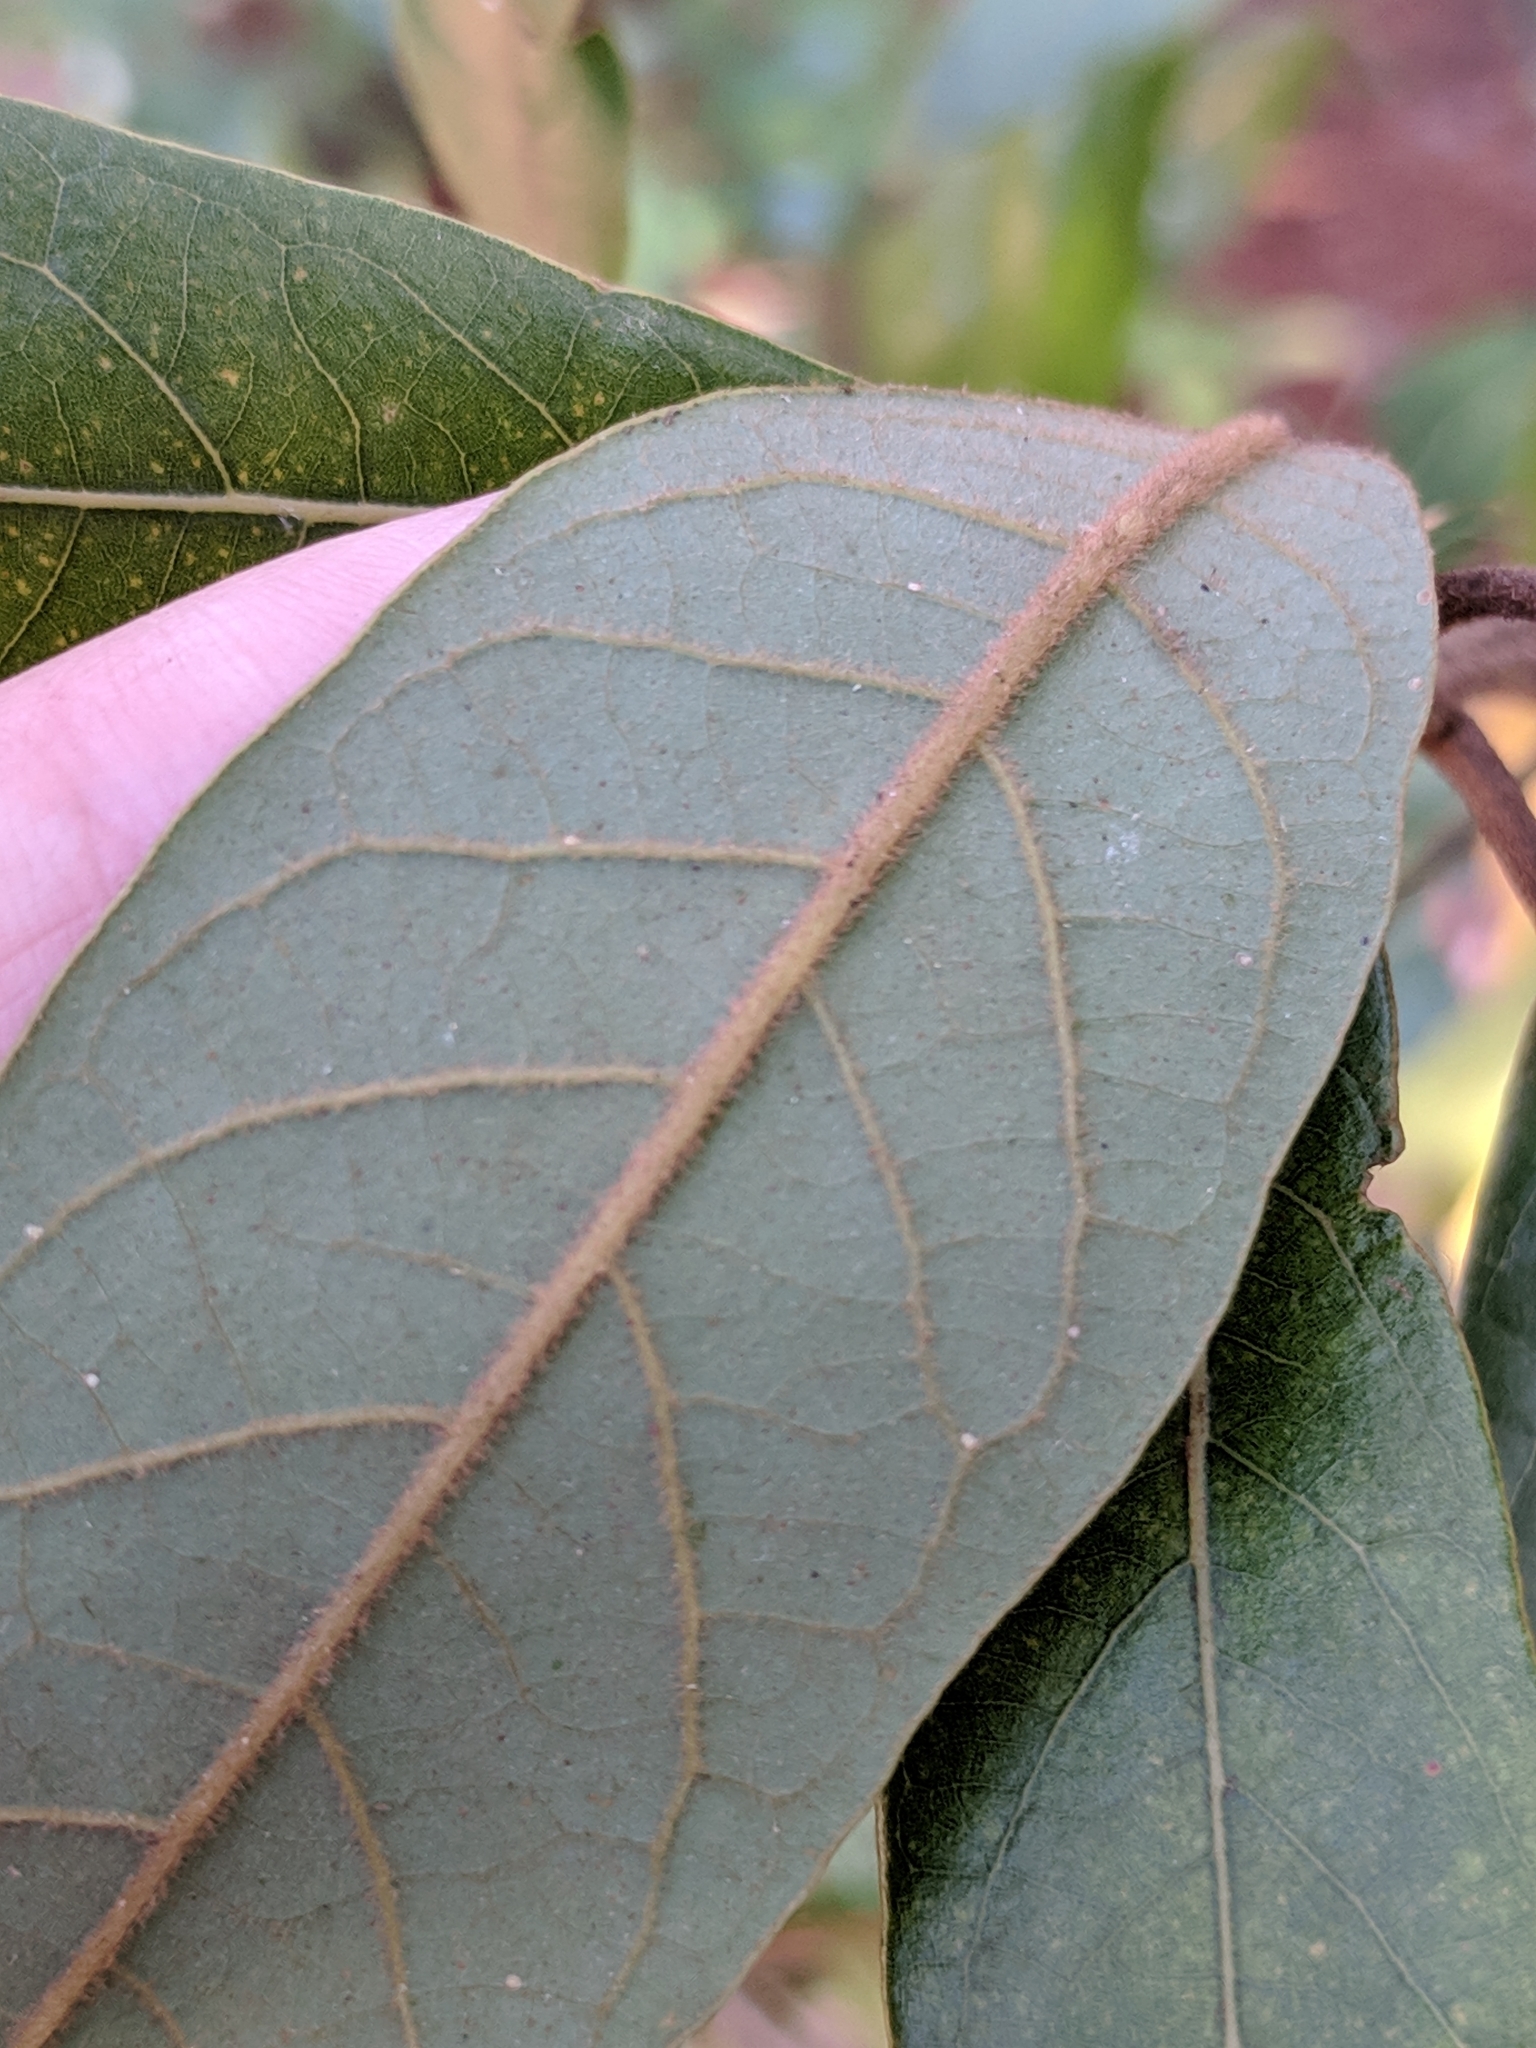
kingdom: Plantae
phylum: Tracheophyta
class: Magnoliopsida
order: Laurales
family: Lauraceae
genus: Persea
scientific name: Persea palustris
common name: Swampbay
